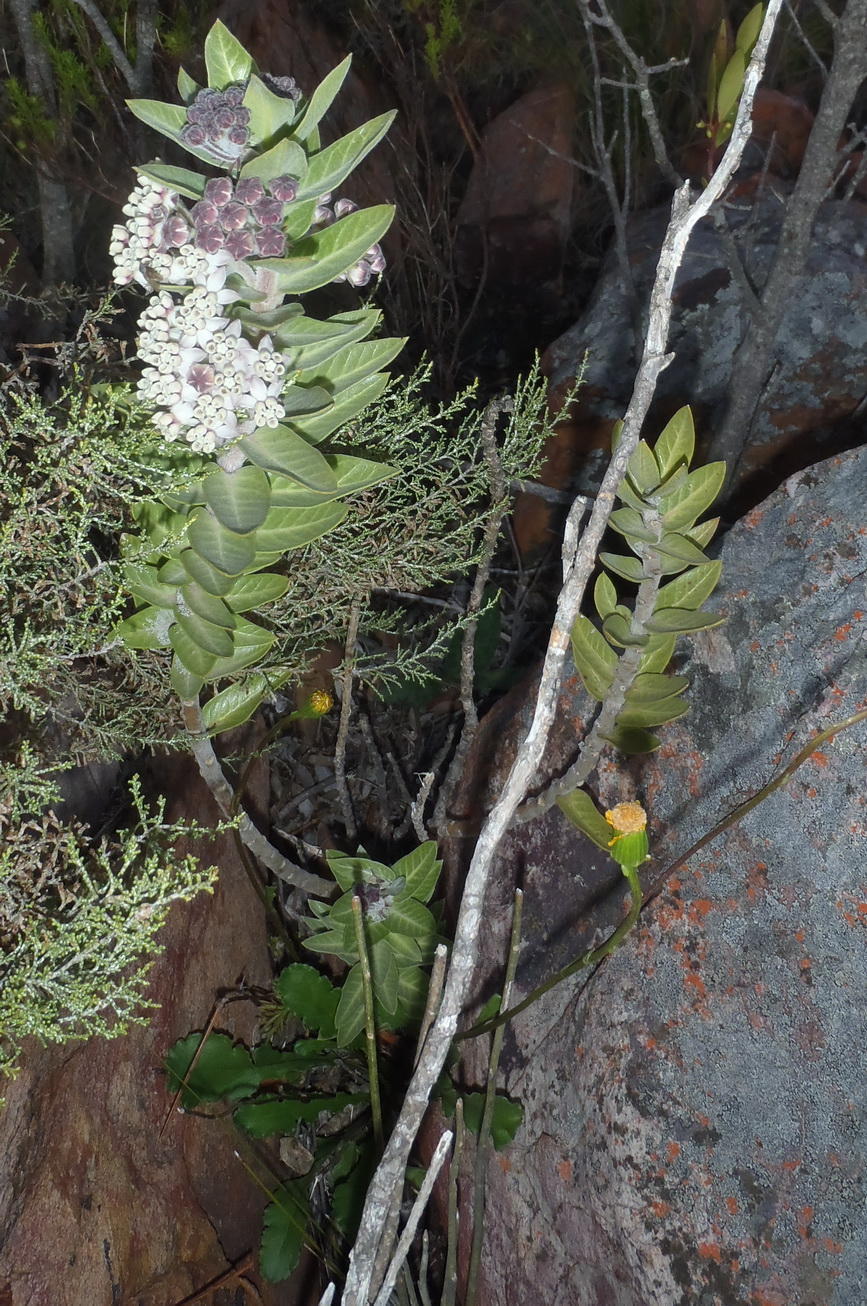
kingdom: Plantae
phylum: Tracheophyta
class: Magnoliopsida
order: Gentianales
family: Apocynaceae
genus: Gomphocarpus
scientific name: Gomphocarpus cancellatus
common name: Wild cotton
